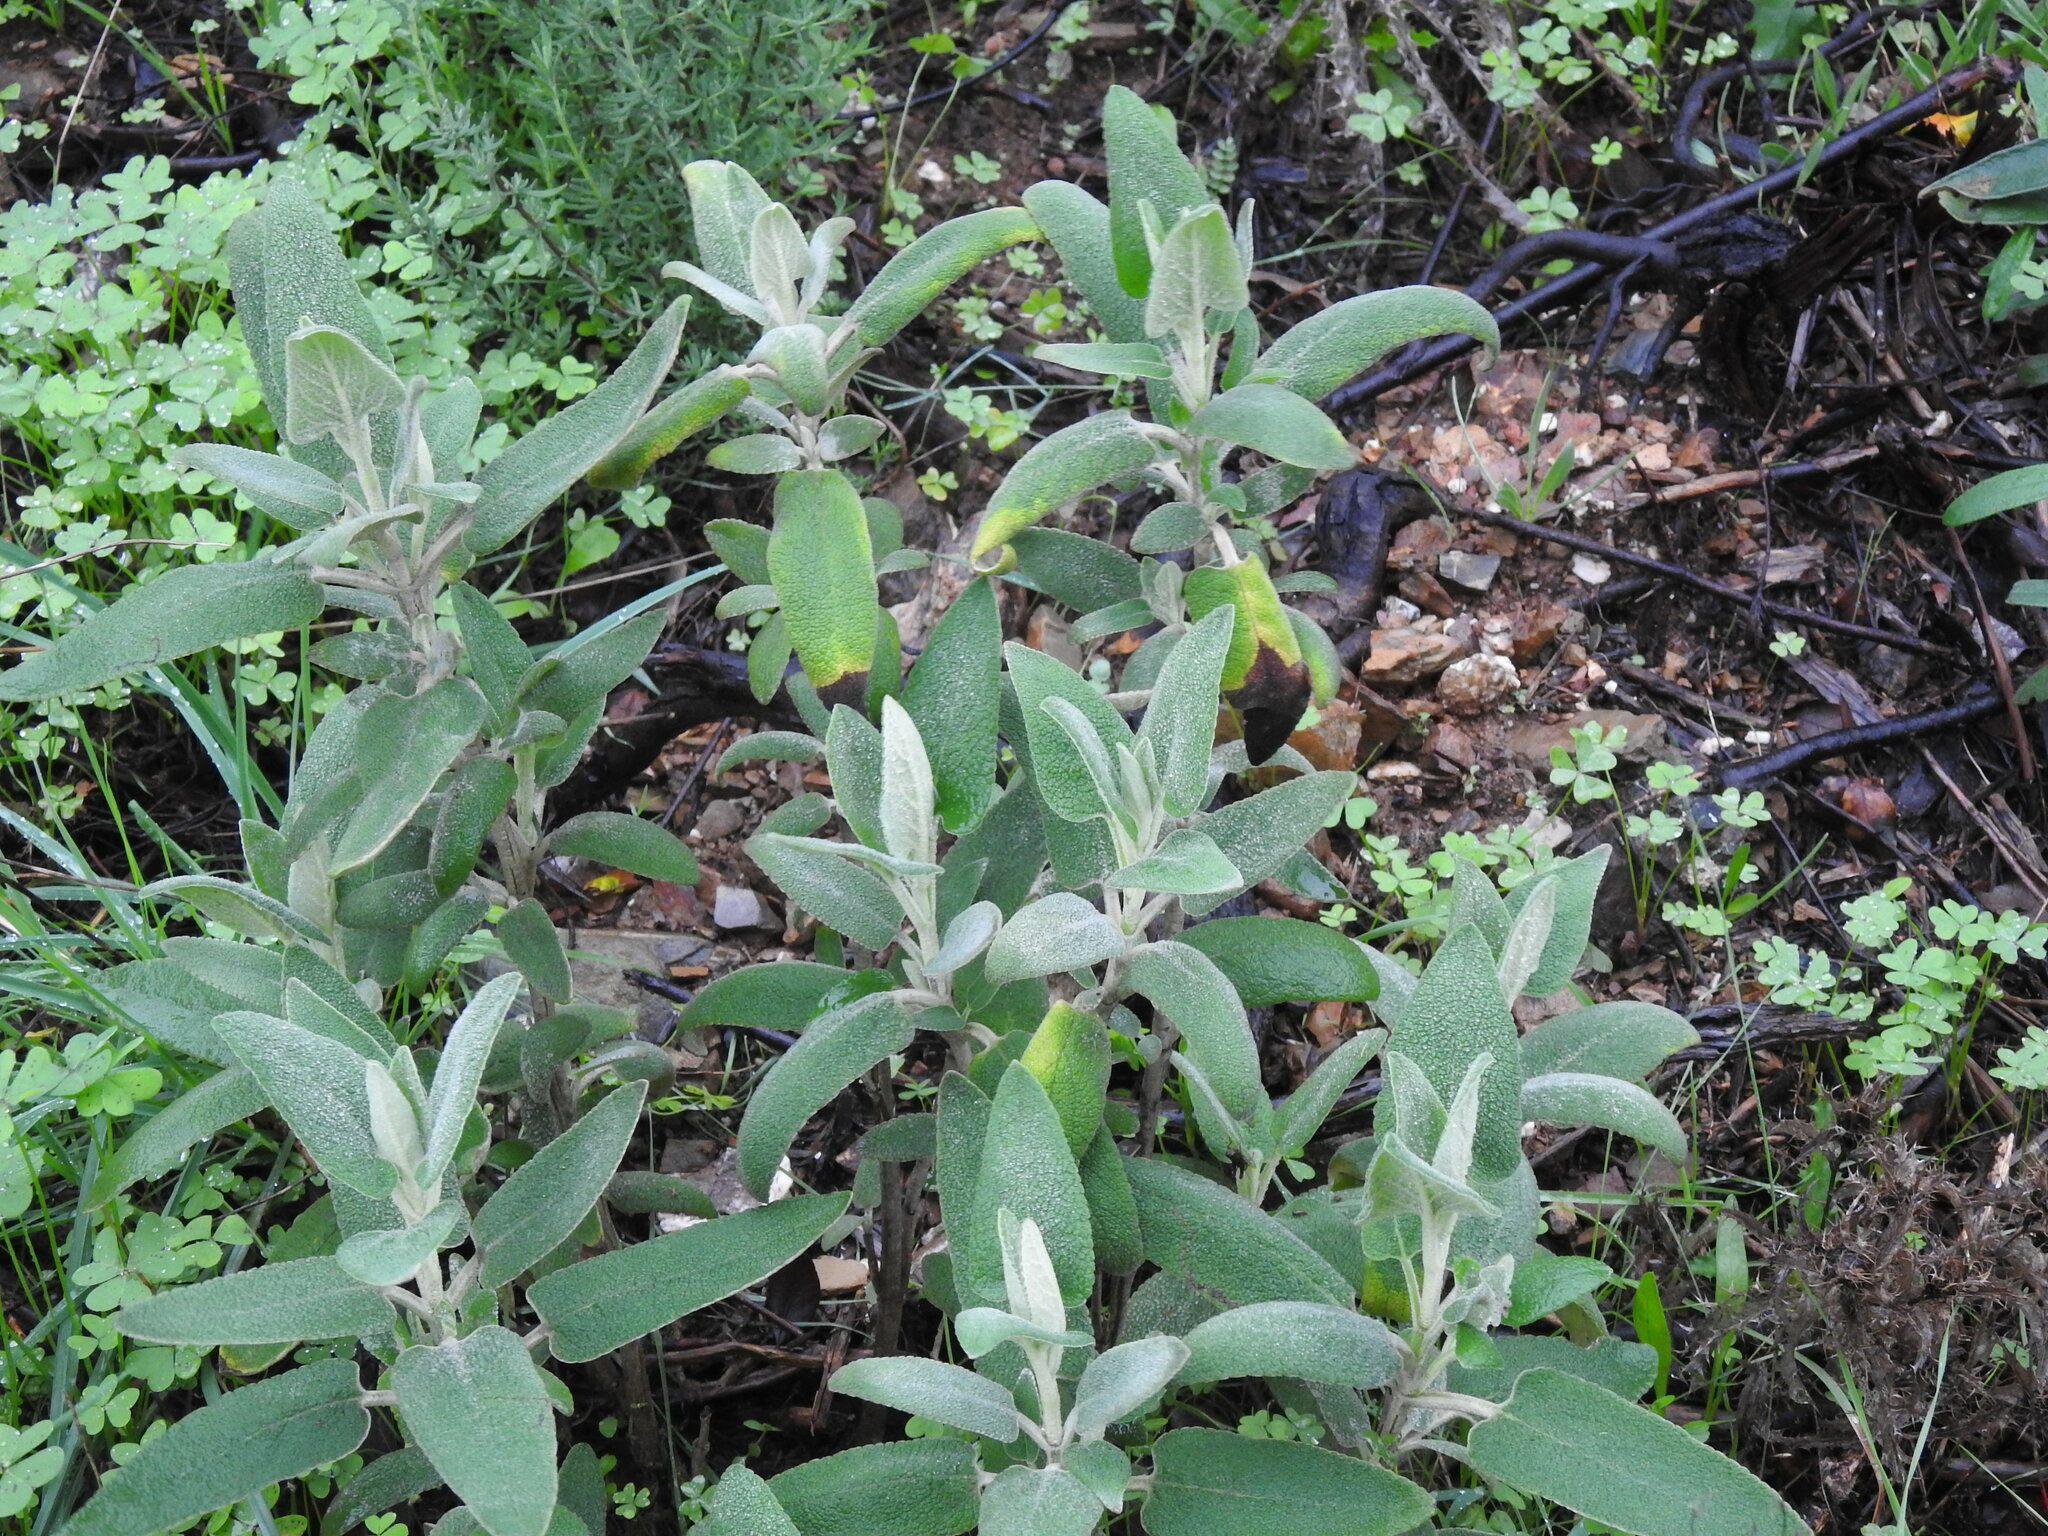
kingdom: Plantae
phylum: Tracheophyta
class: Magnoliopsida
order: Lamiales
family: Lamiaceae
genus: Phlomis
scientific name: Phlomis purpurea
